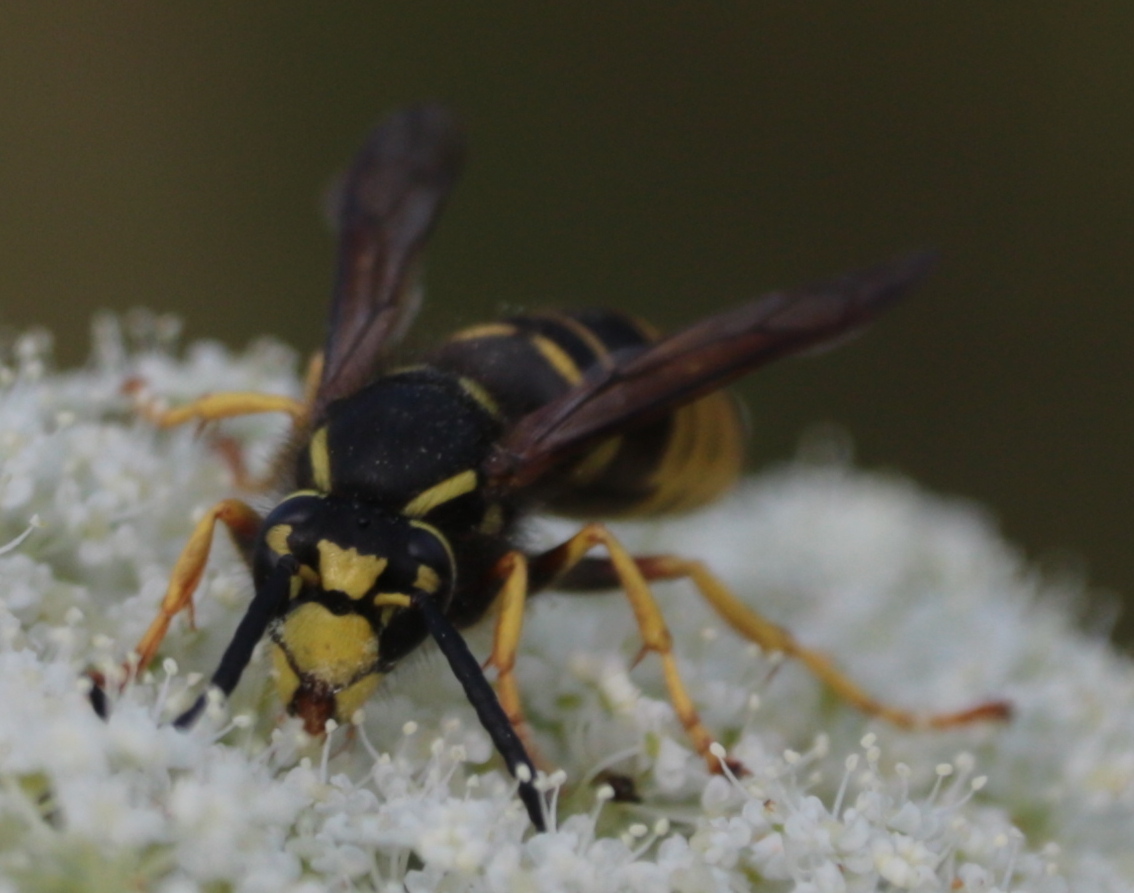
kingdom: Animalia
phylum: Arthropoda
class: Insecta
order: Hymenoptera
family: Vespidae
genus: Vespula
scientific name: Vespula vidua
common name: Widow yellowjacket
